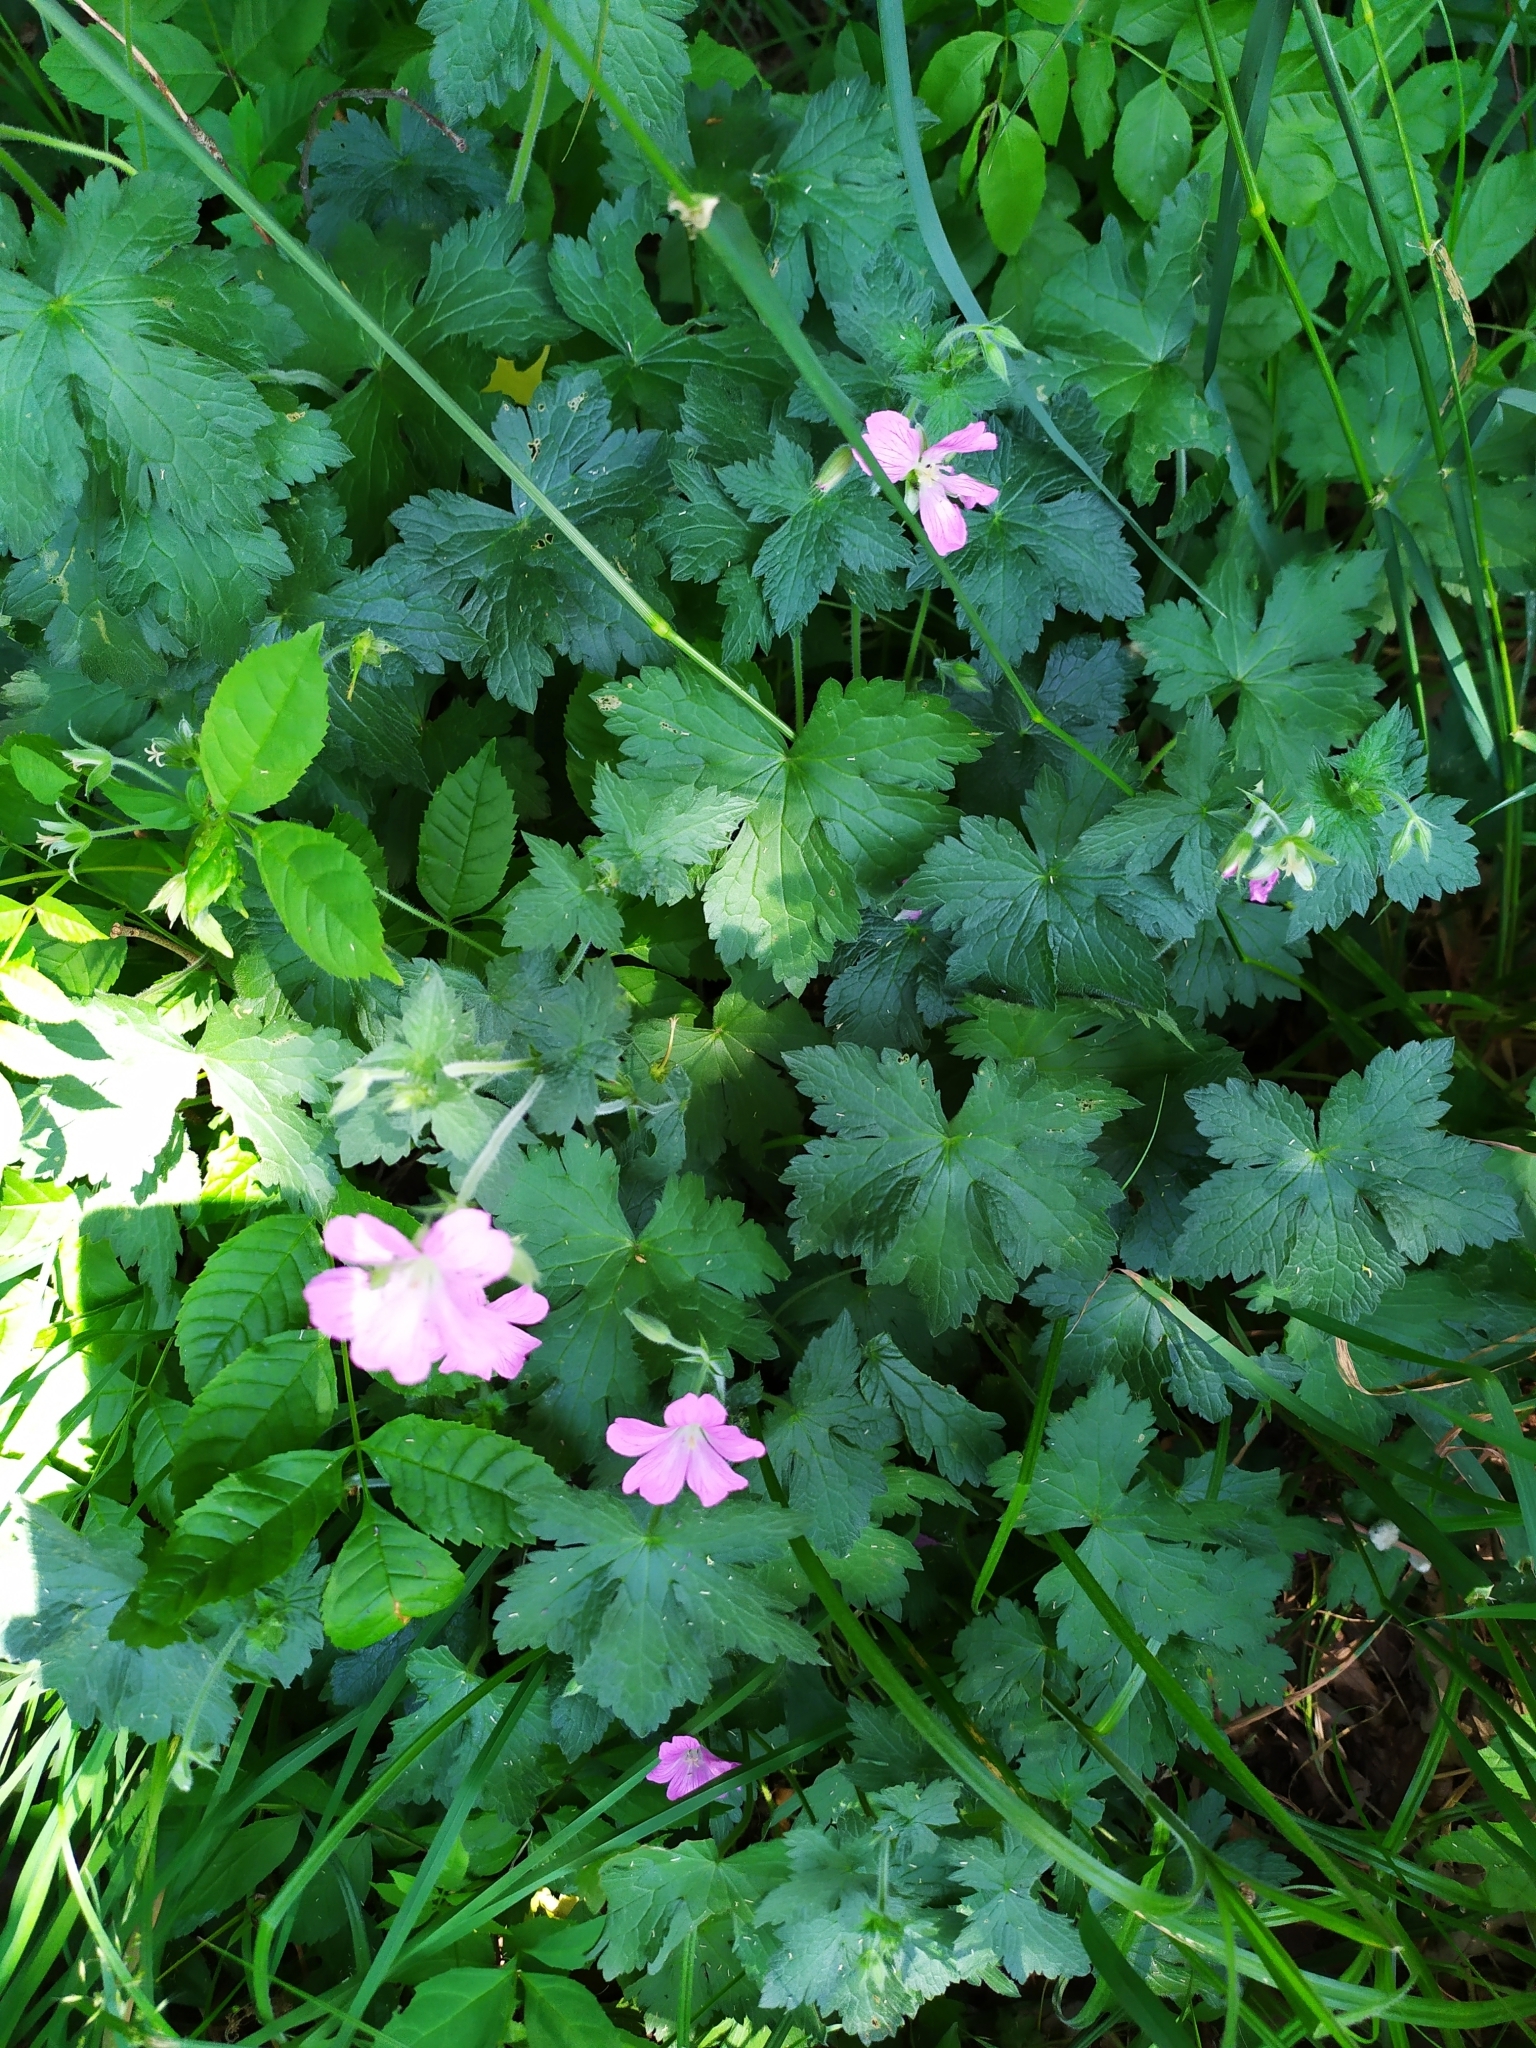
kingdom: Plantae
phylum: Tracheophyta
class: Magnoliopsida
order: Geraniales
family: Geraniaceae
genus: Geranium
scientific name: Geranium endressii
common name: French crane's-bill
